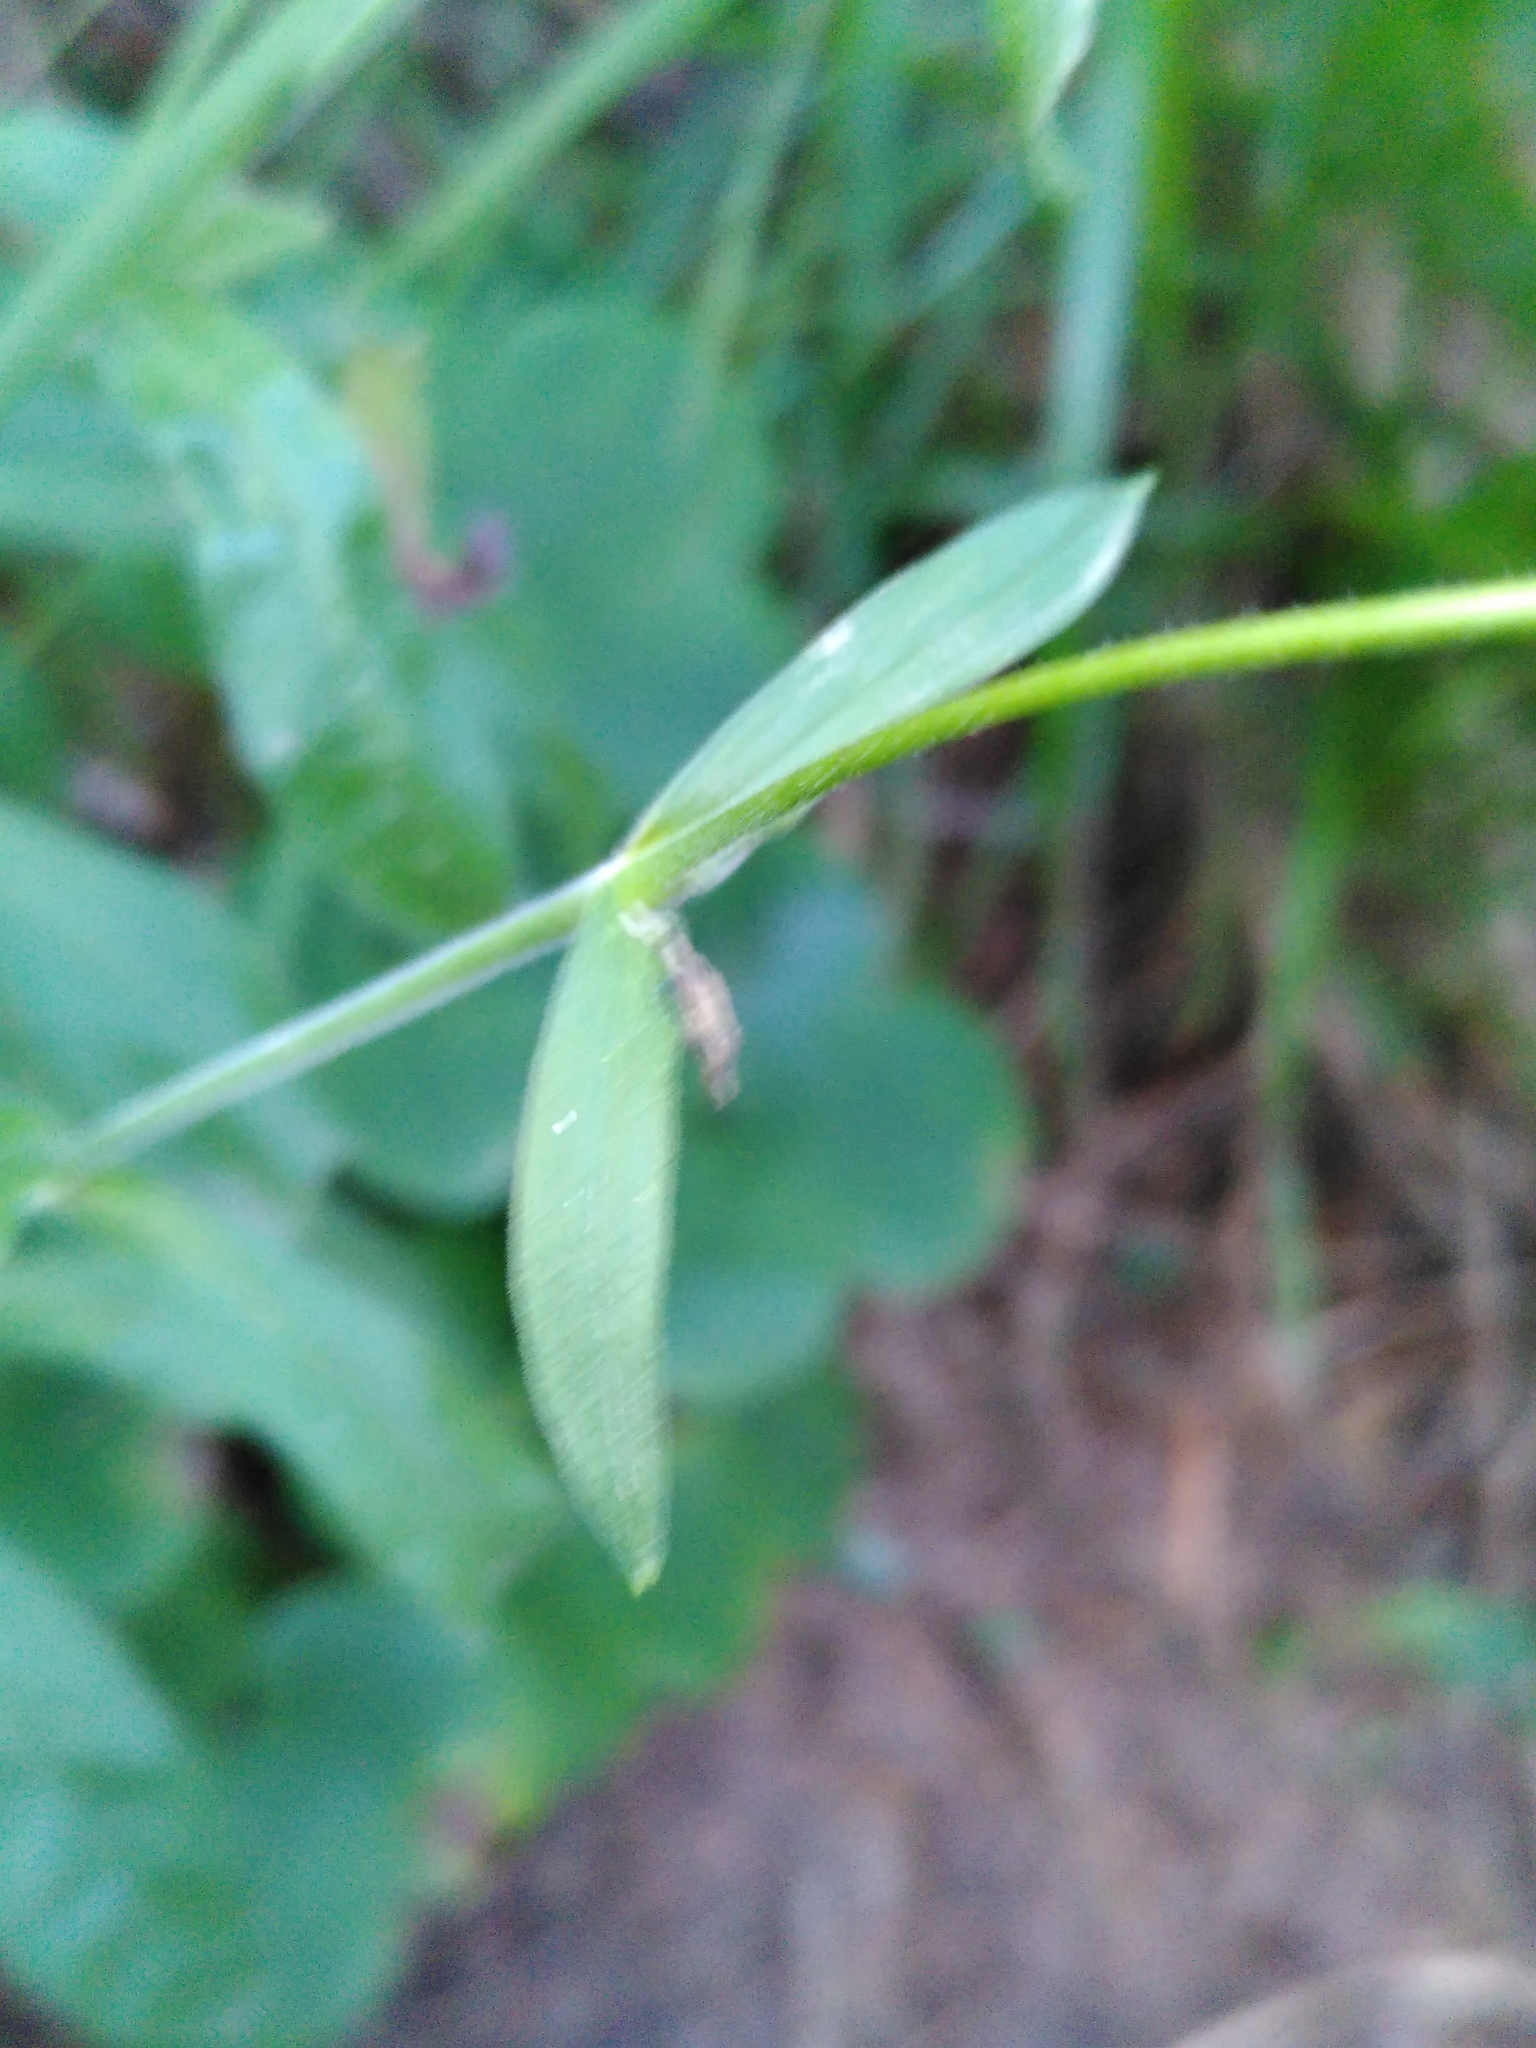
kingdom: Plantae
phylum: Tracheophyta
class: Magnoliopsida
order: Caryophyllales
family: Caryophyllaceae
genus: Silene
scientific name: Silene nutans
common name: Nottingham catchfly
